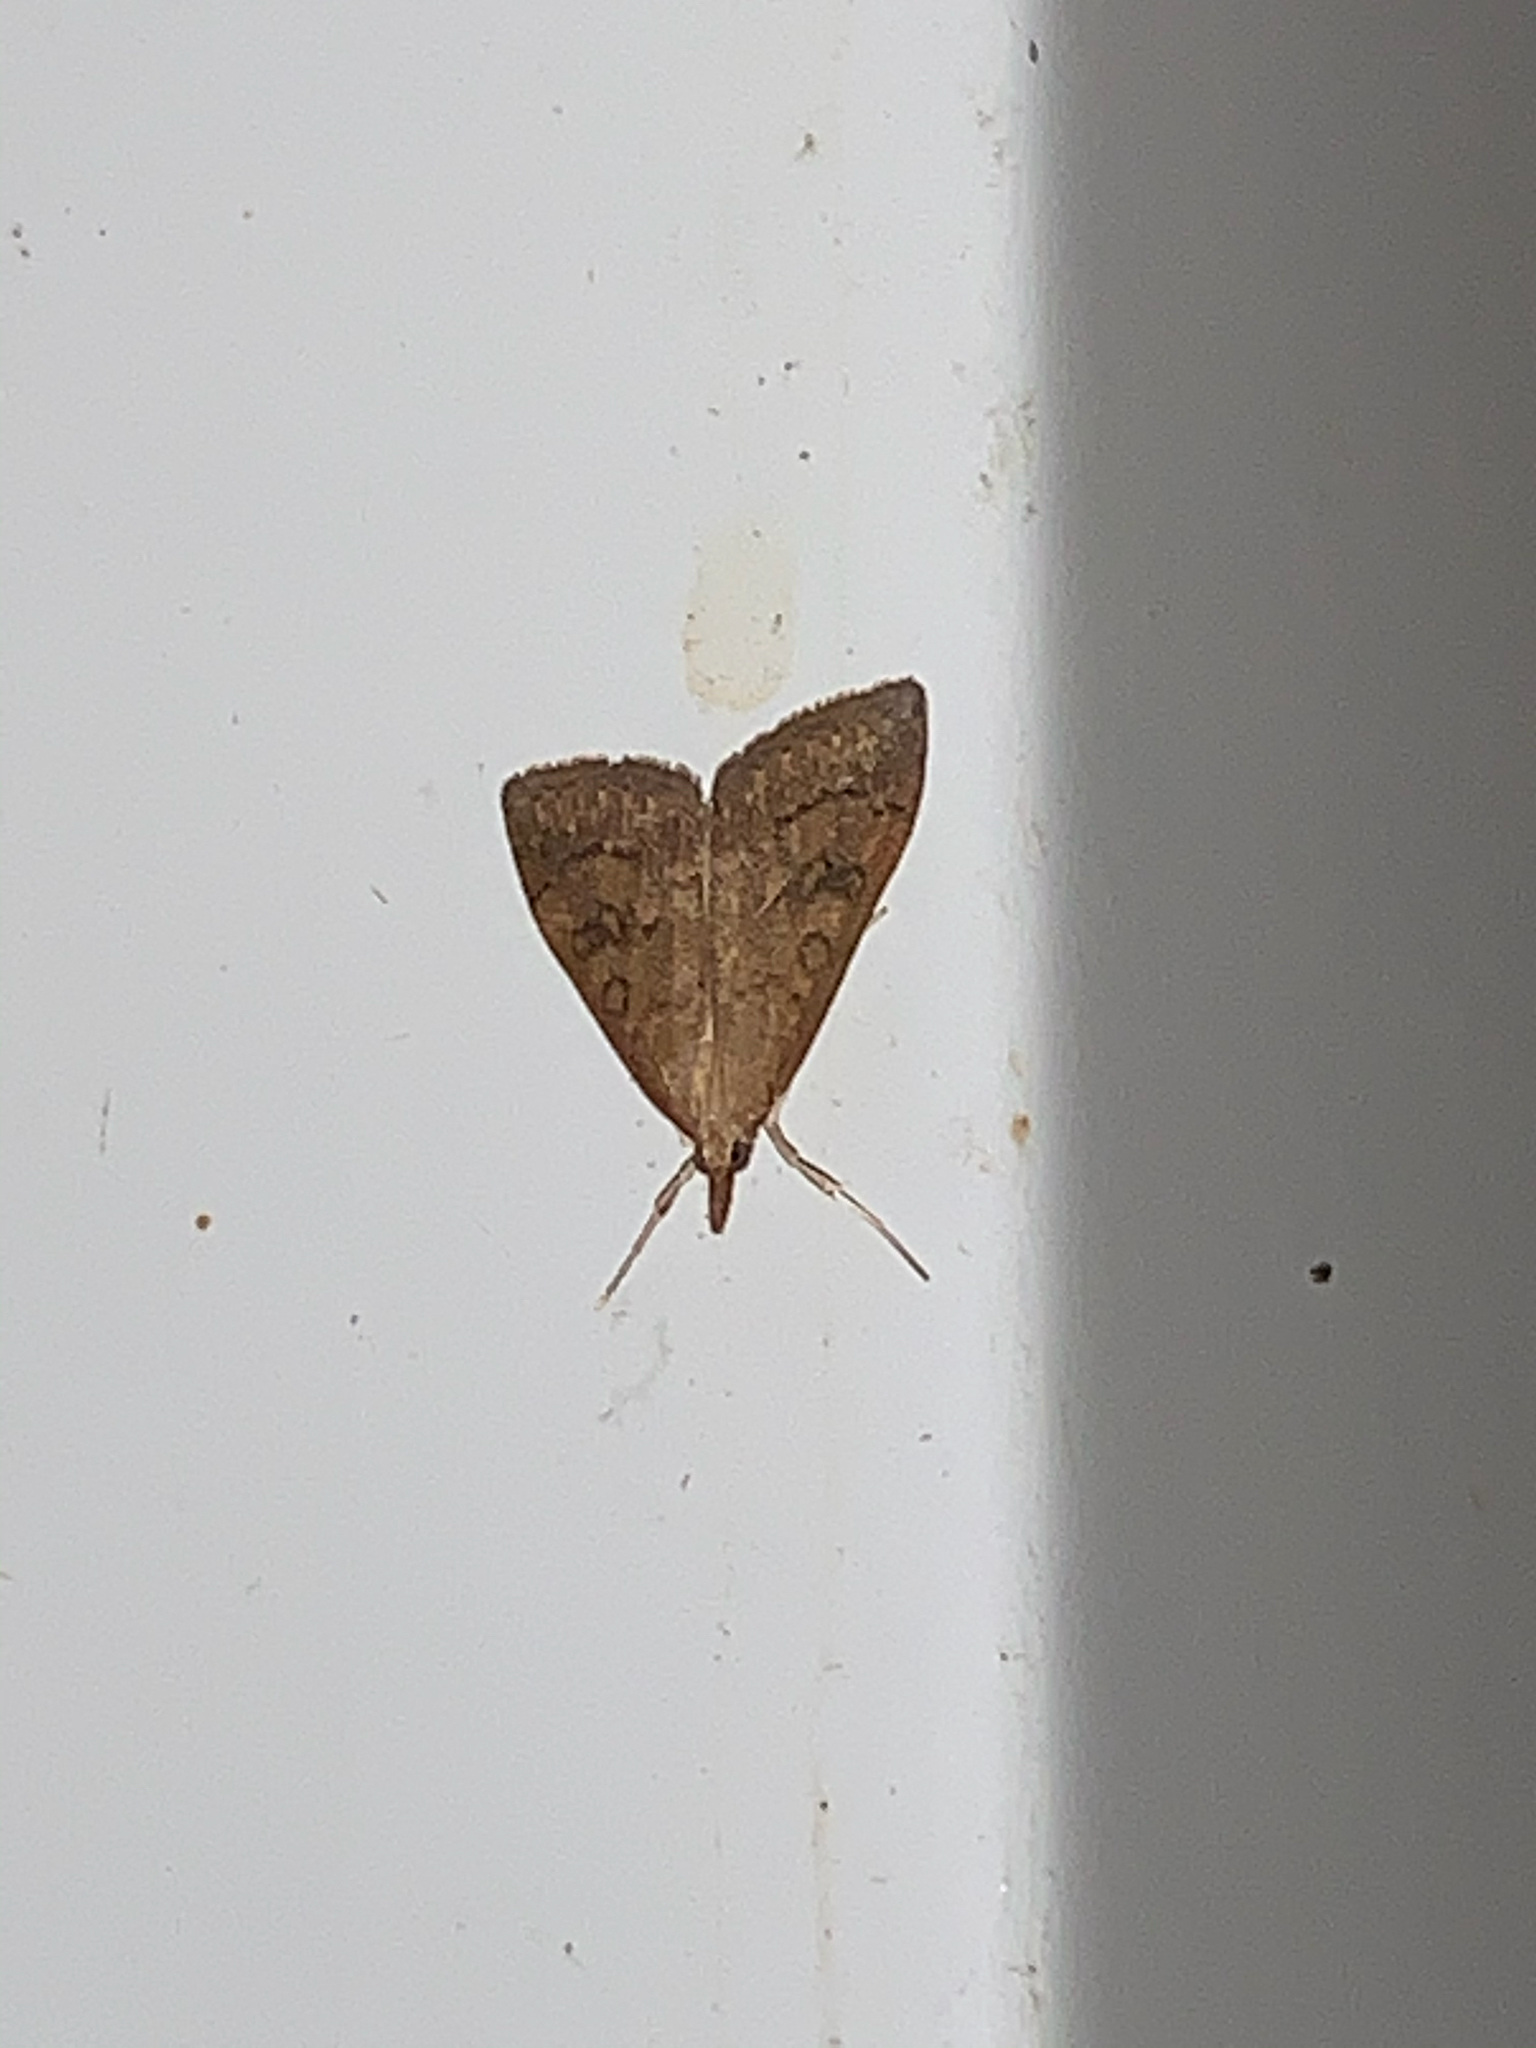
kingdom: Animalia
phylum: Arthropoda
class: Insecta
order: Lepidoptera
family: Crambidae
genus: Udea
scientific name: Udea rubigalis
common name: Celery leaftier moth
